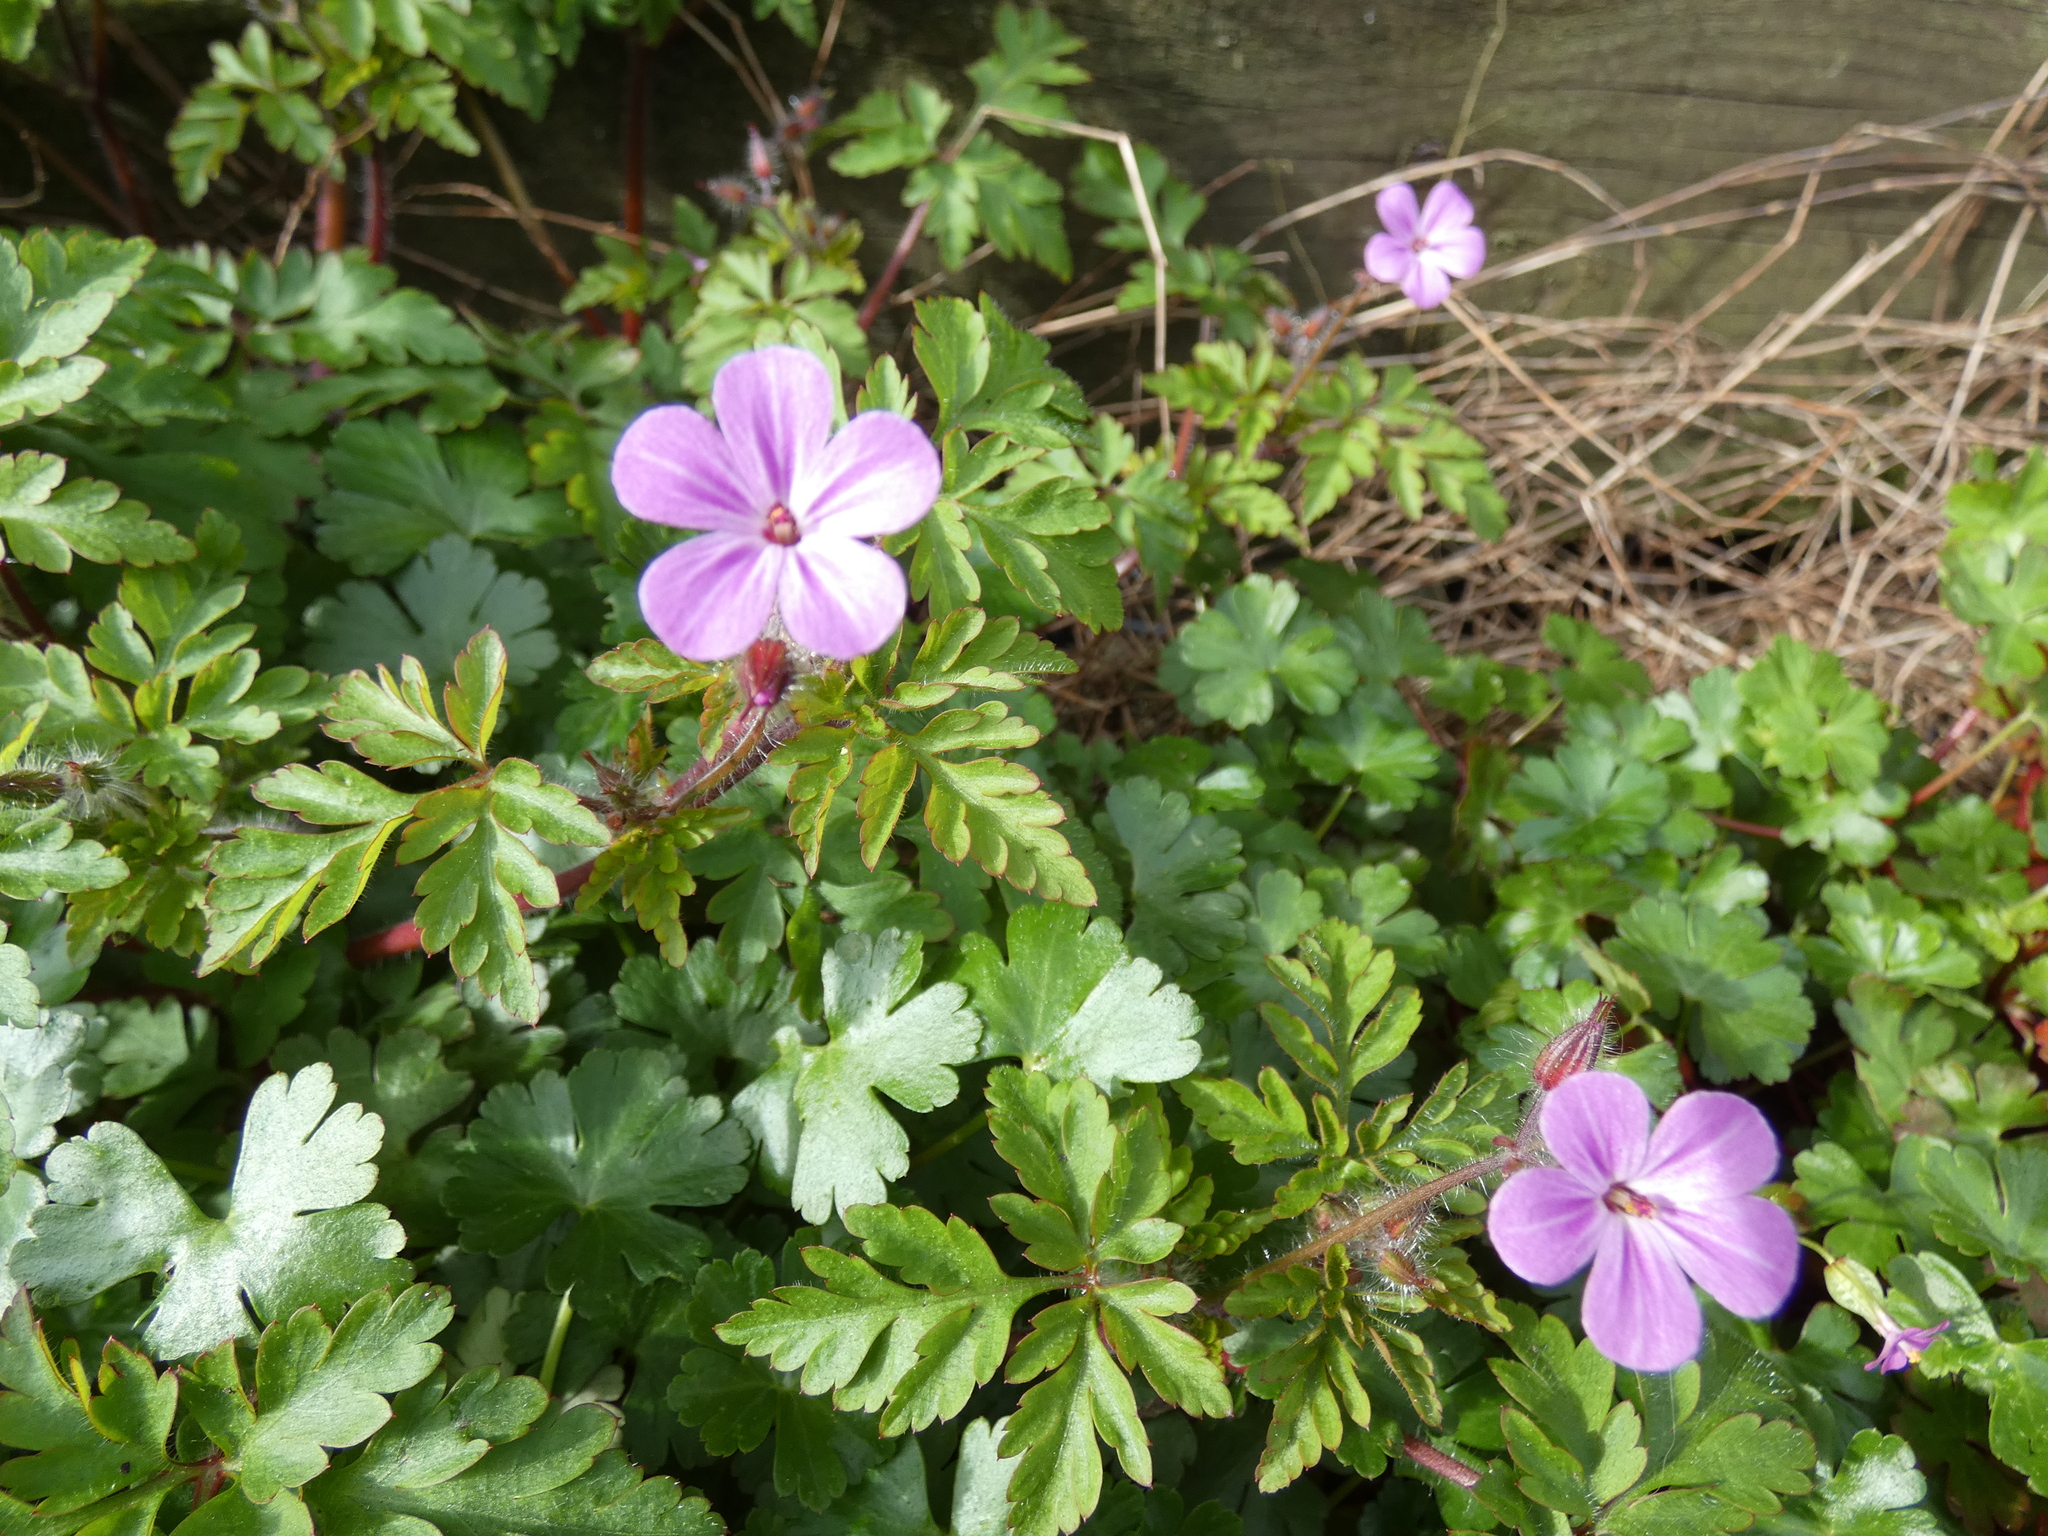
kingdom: Plantae
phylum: Tracheophyta
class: Magnoliopsida
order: Geraniales
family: Geraniaceae
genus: Geranium
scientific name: Geranium robertianum
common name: Herb-robert
